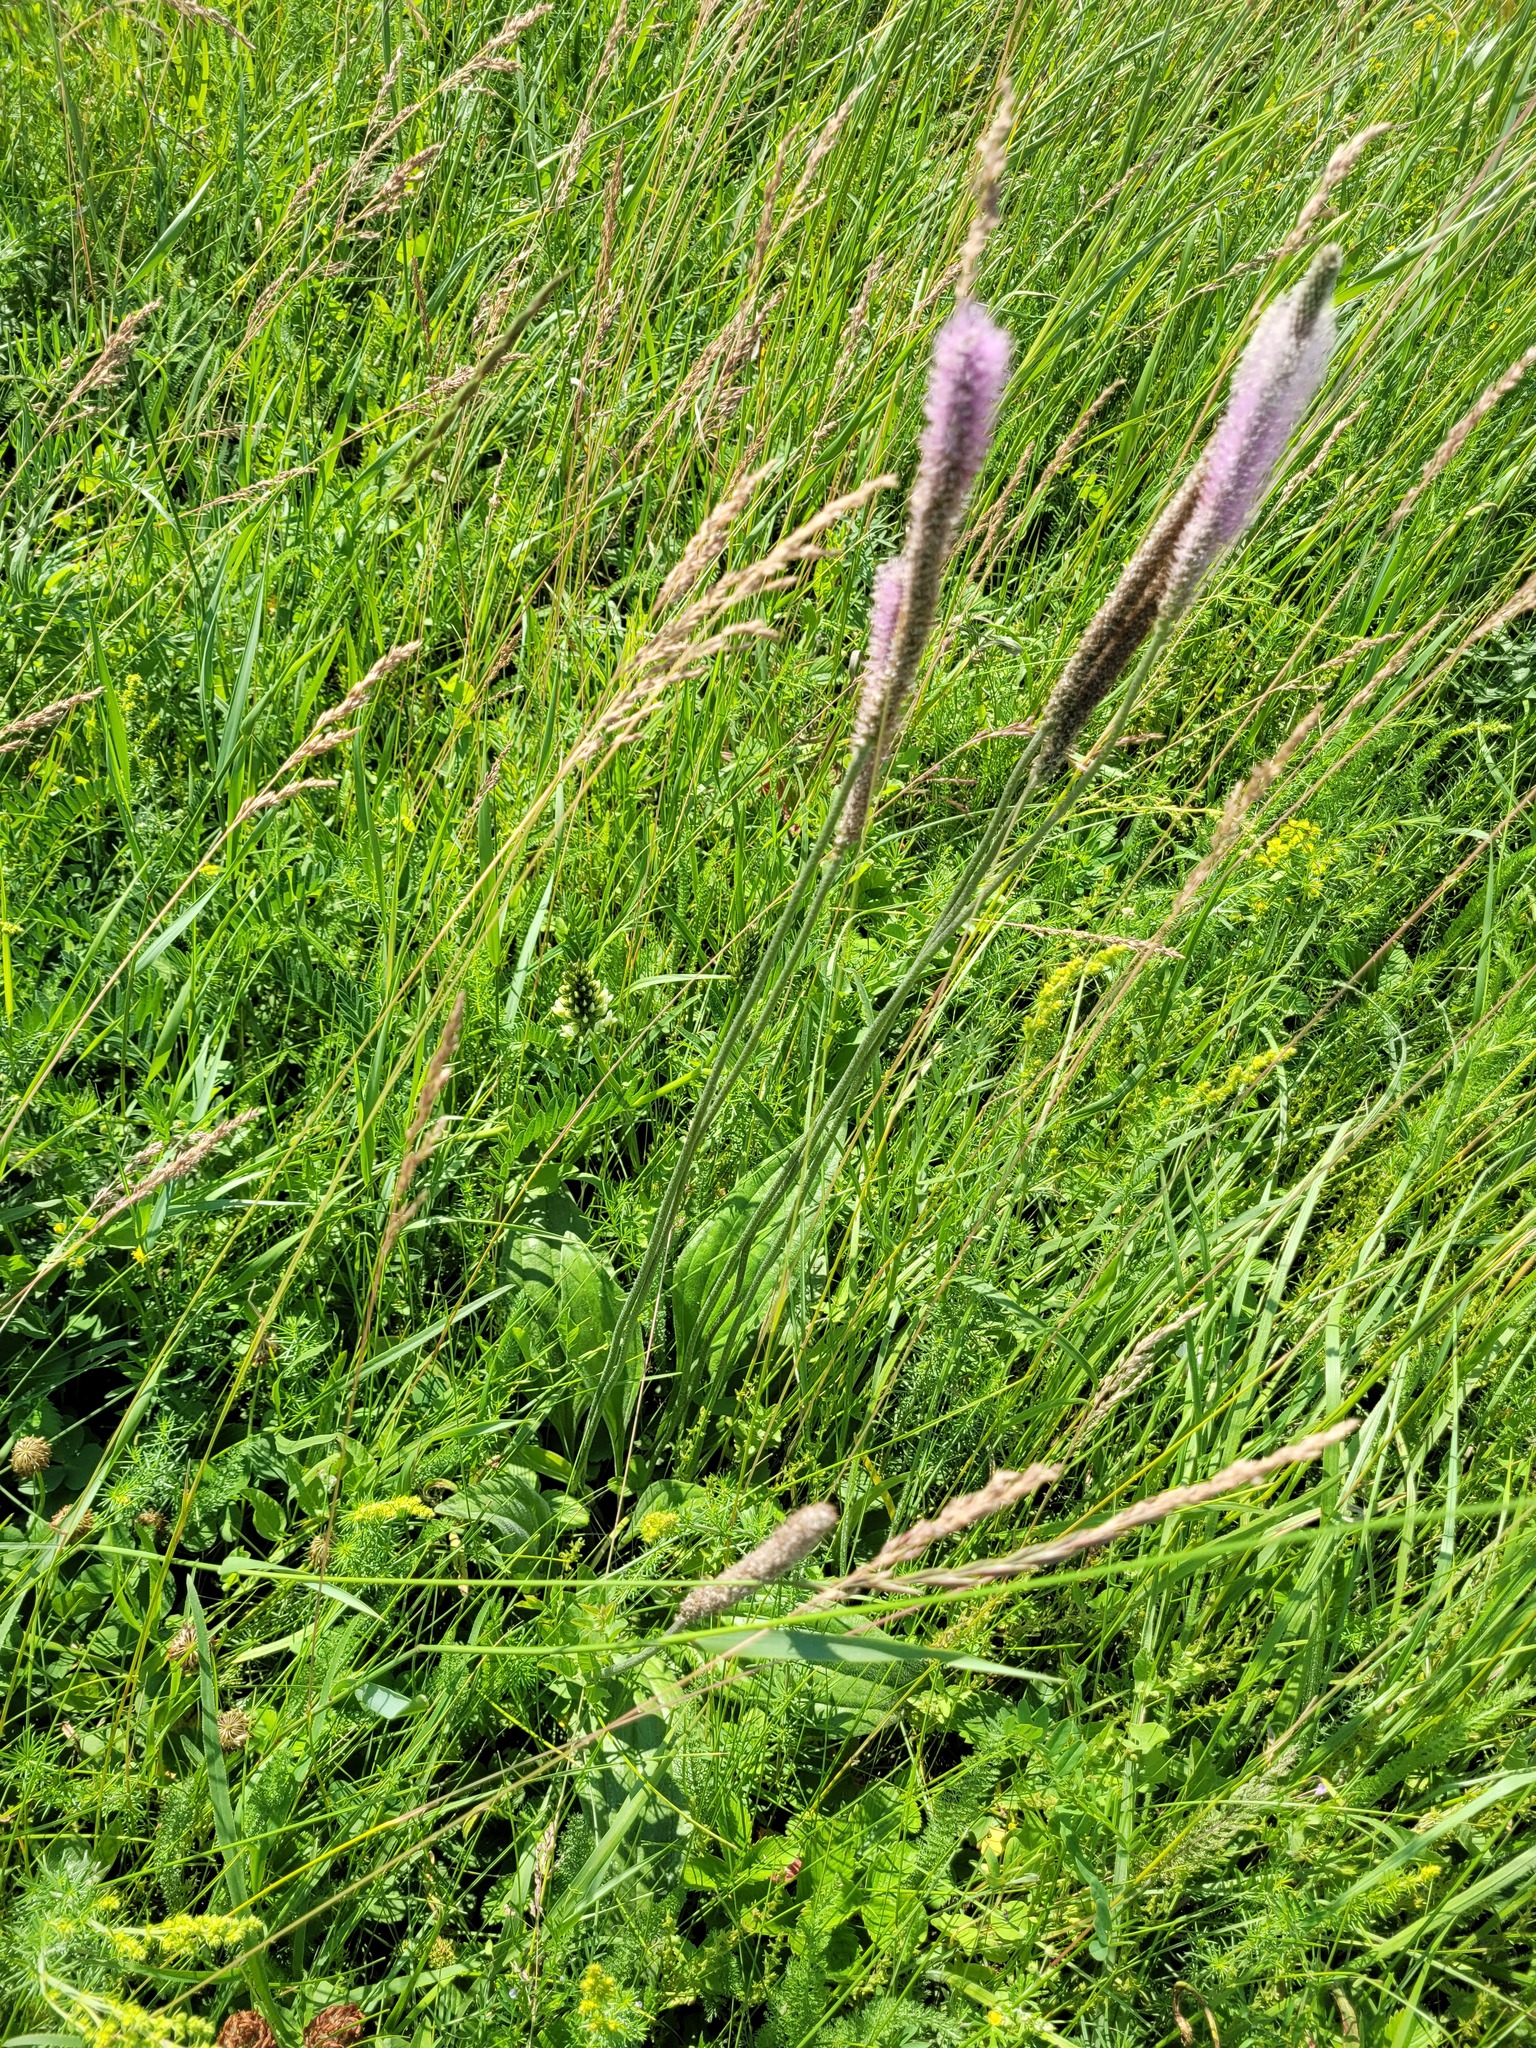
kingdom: Plantae
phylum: Tracheophyta
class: Magnoliopsida
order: Lamiales
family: Plantaginaceae
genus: Plantago
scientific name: Plantago maxima
